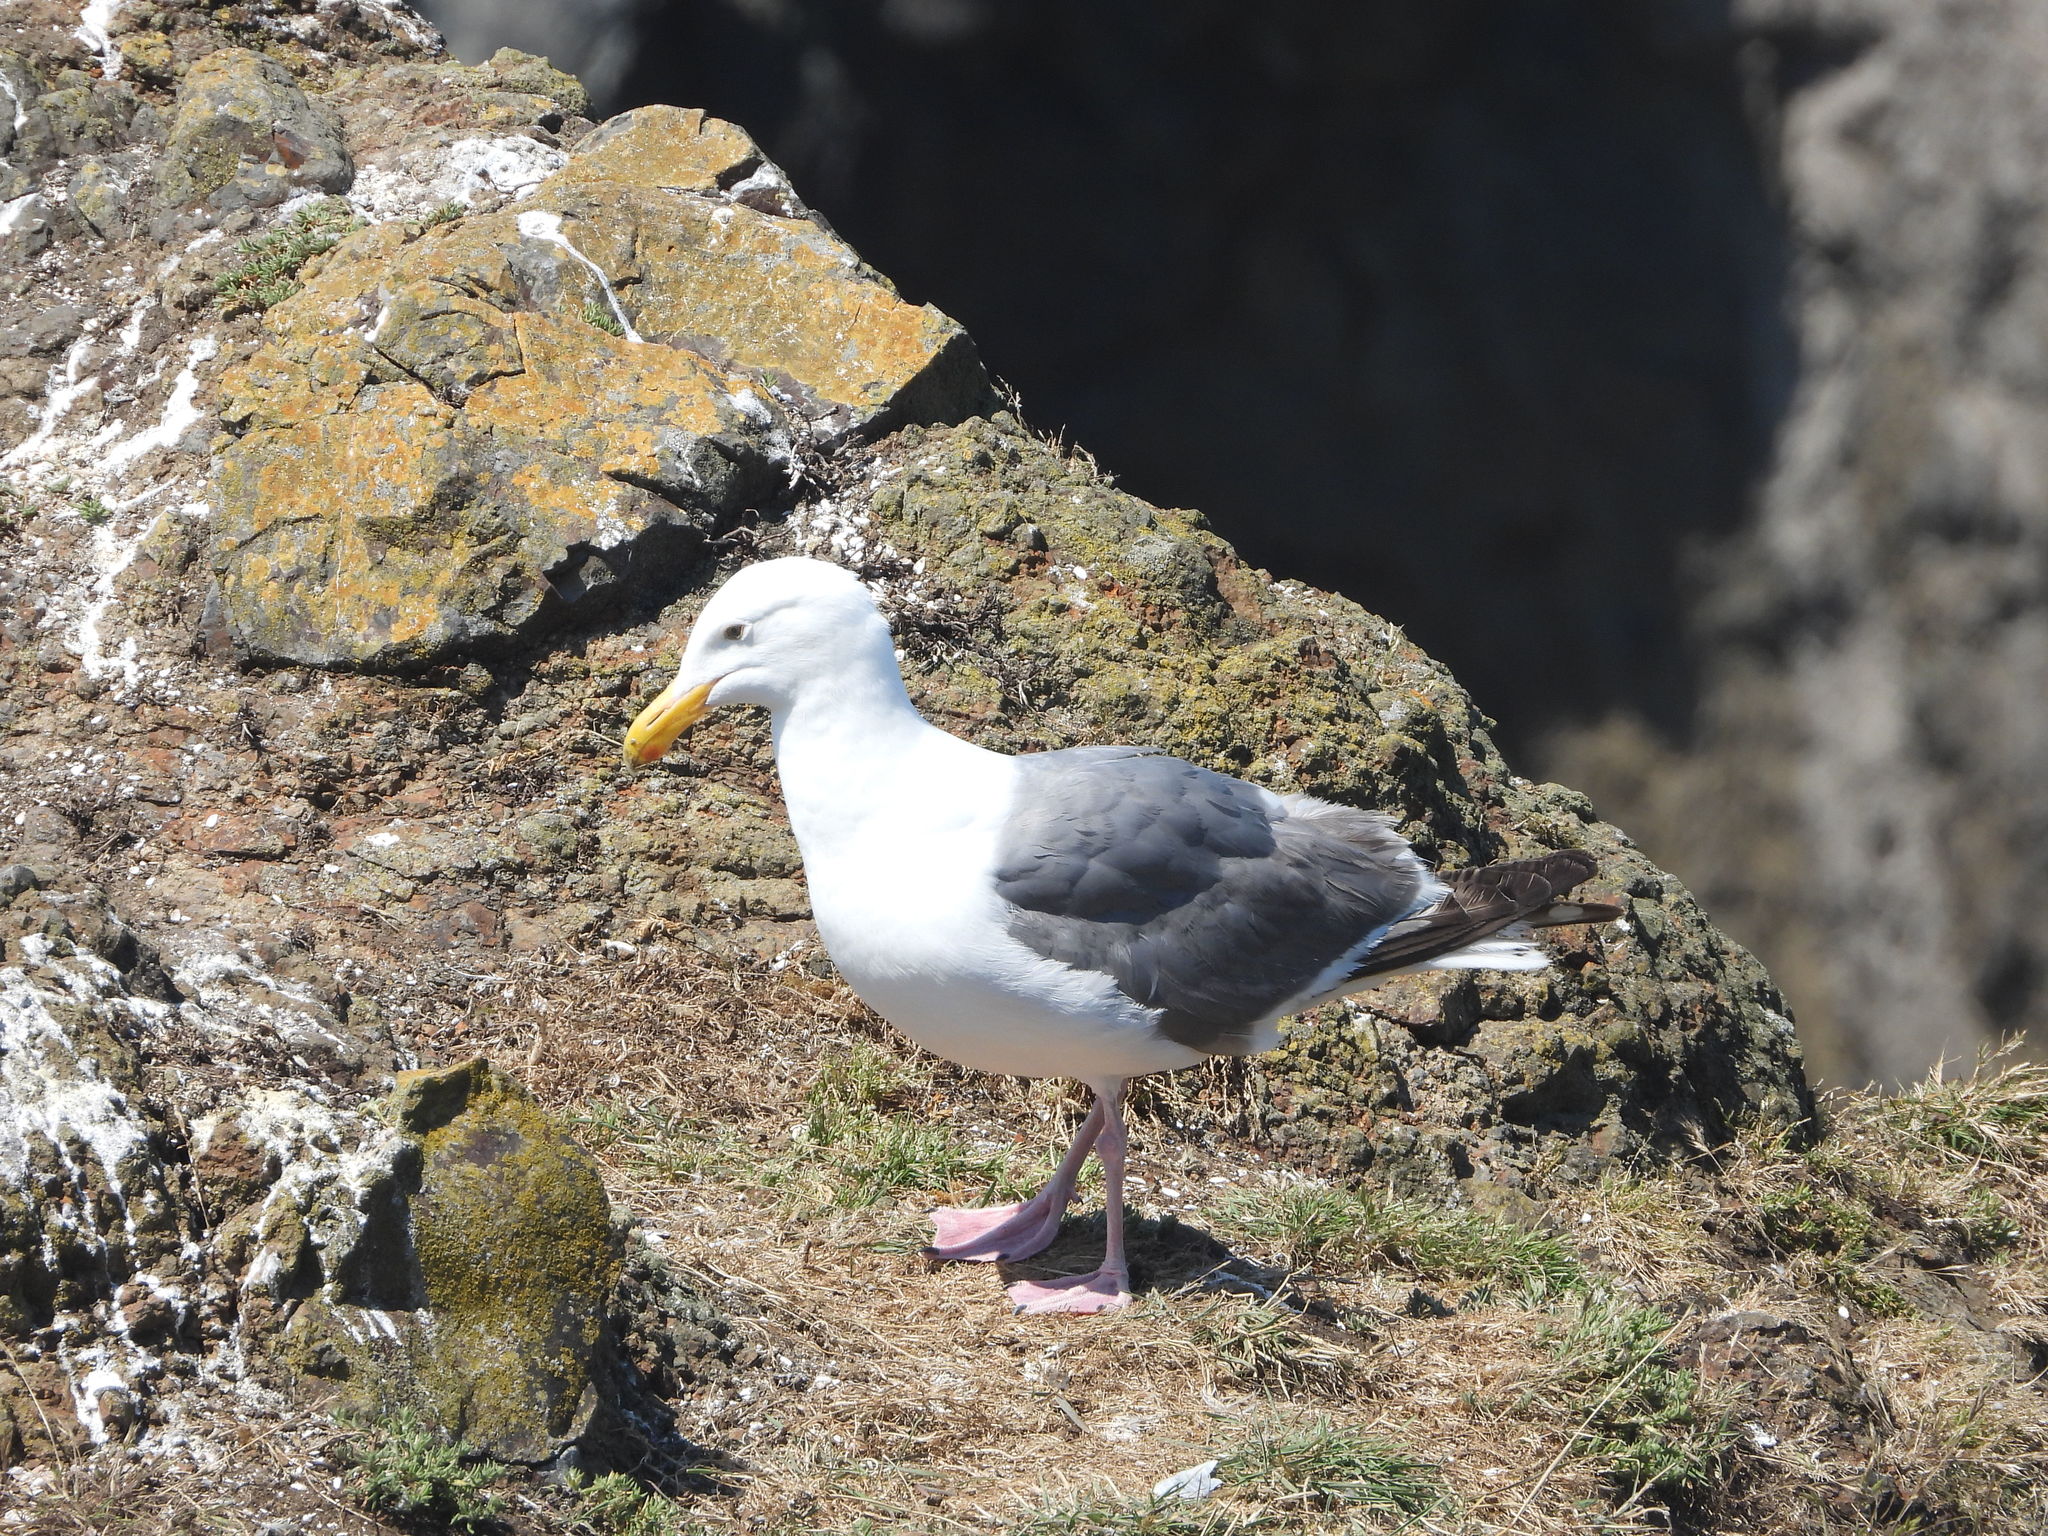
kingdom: Animalia
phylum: Chordata
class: Aves
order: Charadriiformes
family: Laridae
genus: Larus
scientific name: Larus occidentalis
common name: Western gull
